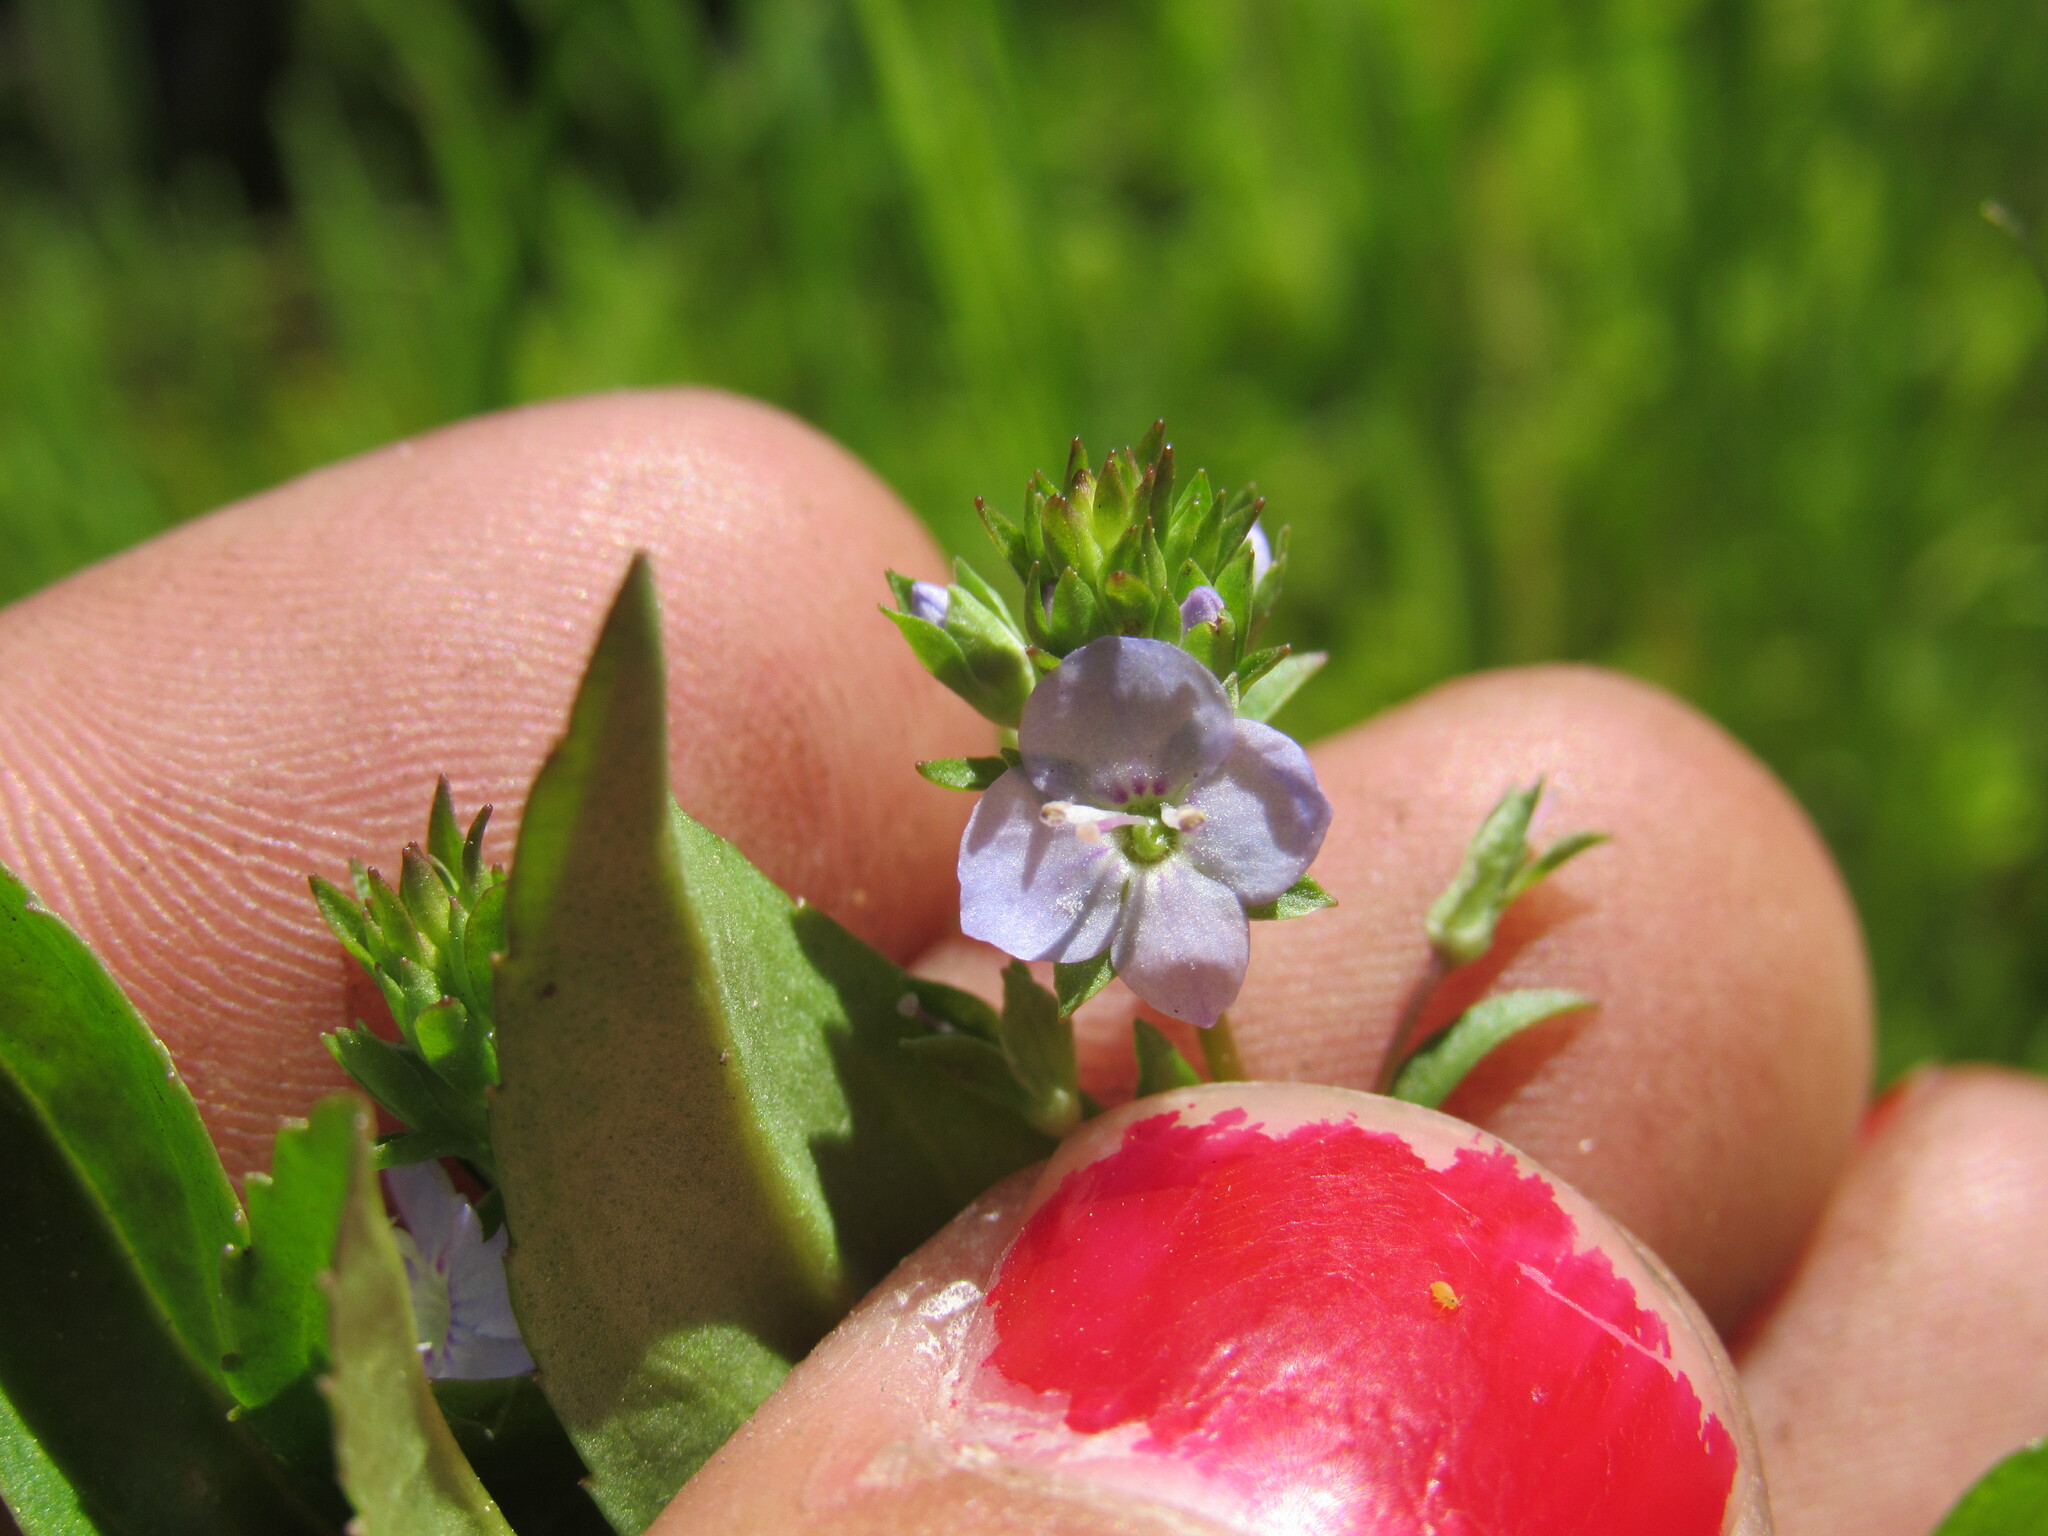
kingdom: Plantae
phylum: Tracheophyta
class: Magnoliopsida
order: Lamiales
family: Plantaginaceae
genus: Veronica
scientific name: Veronica americana
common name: American brooklime
